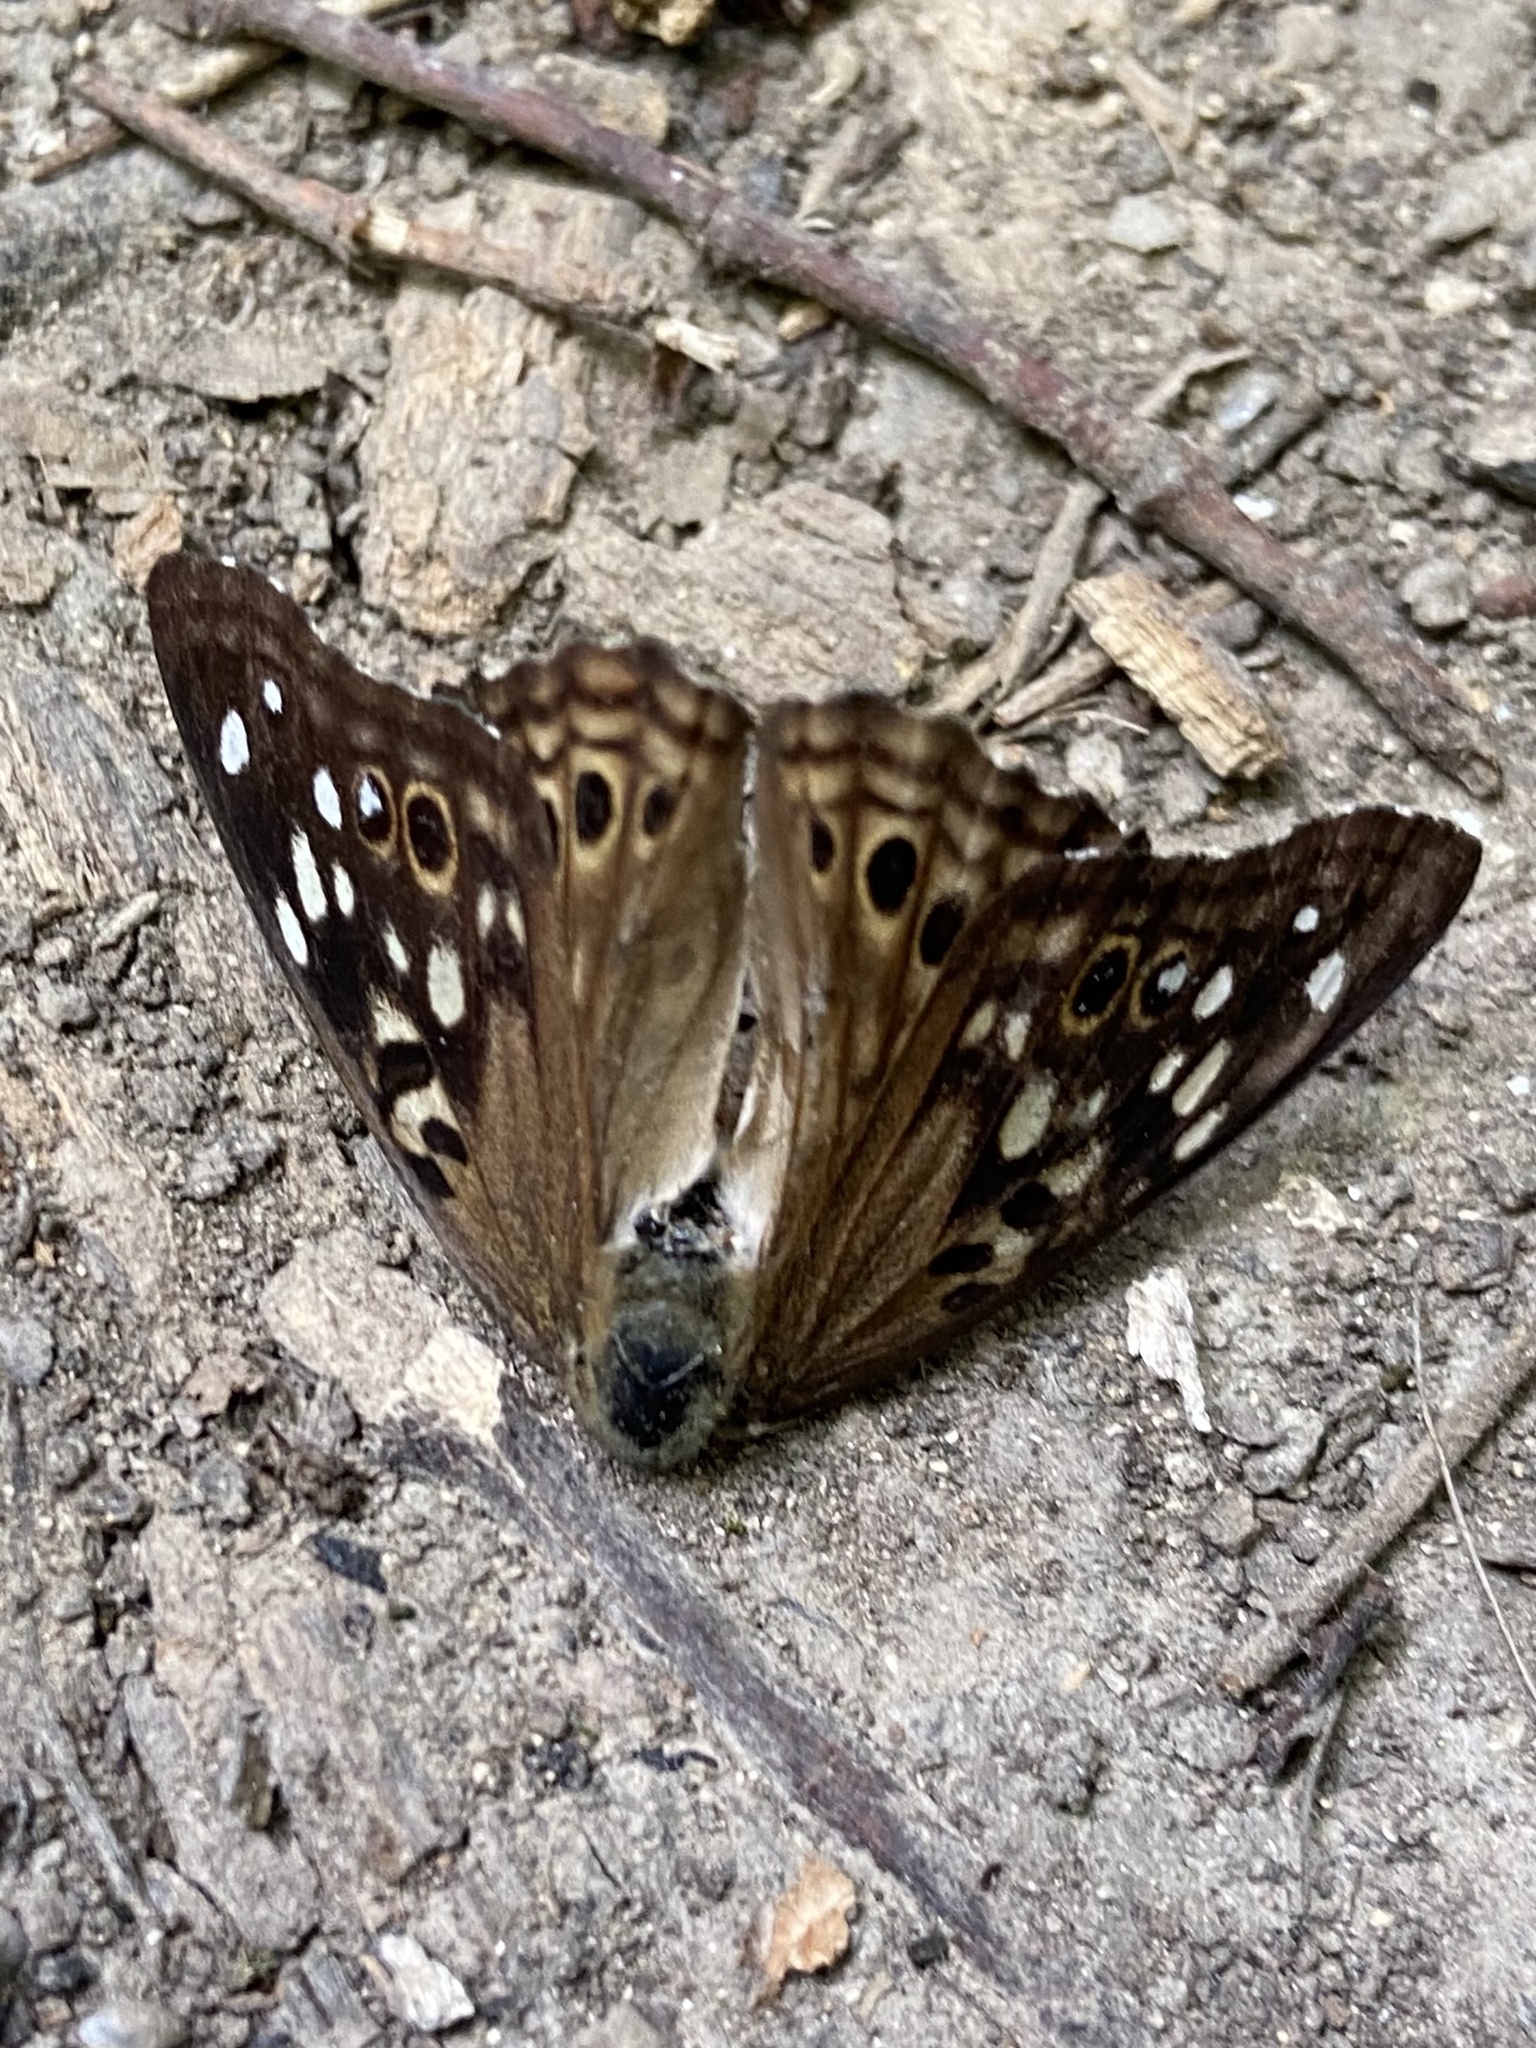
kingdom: Animalia
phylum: Arthropoda
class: Insecta
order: Lepidoptera
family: Nymphalidae
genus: Asterocampa
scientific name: Asterocampa celtis
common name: Hackberry emperor
